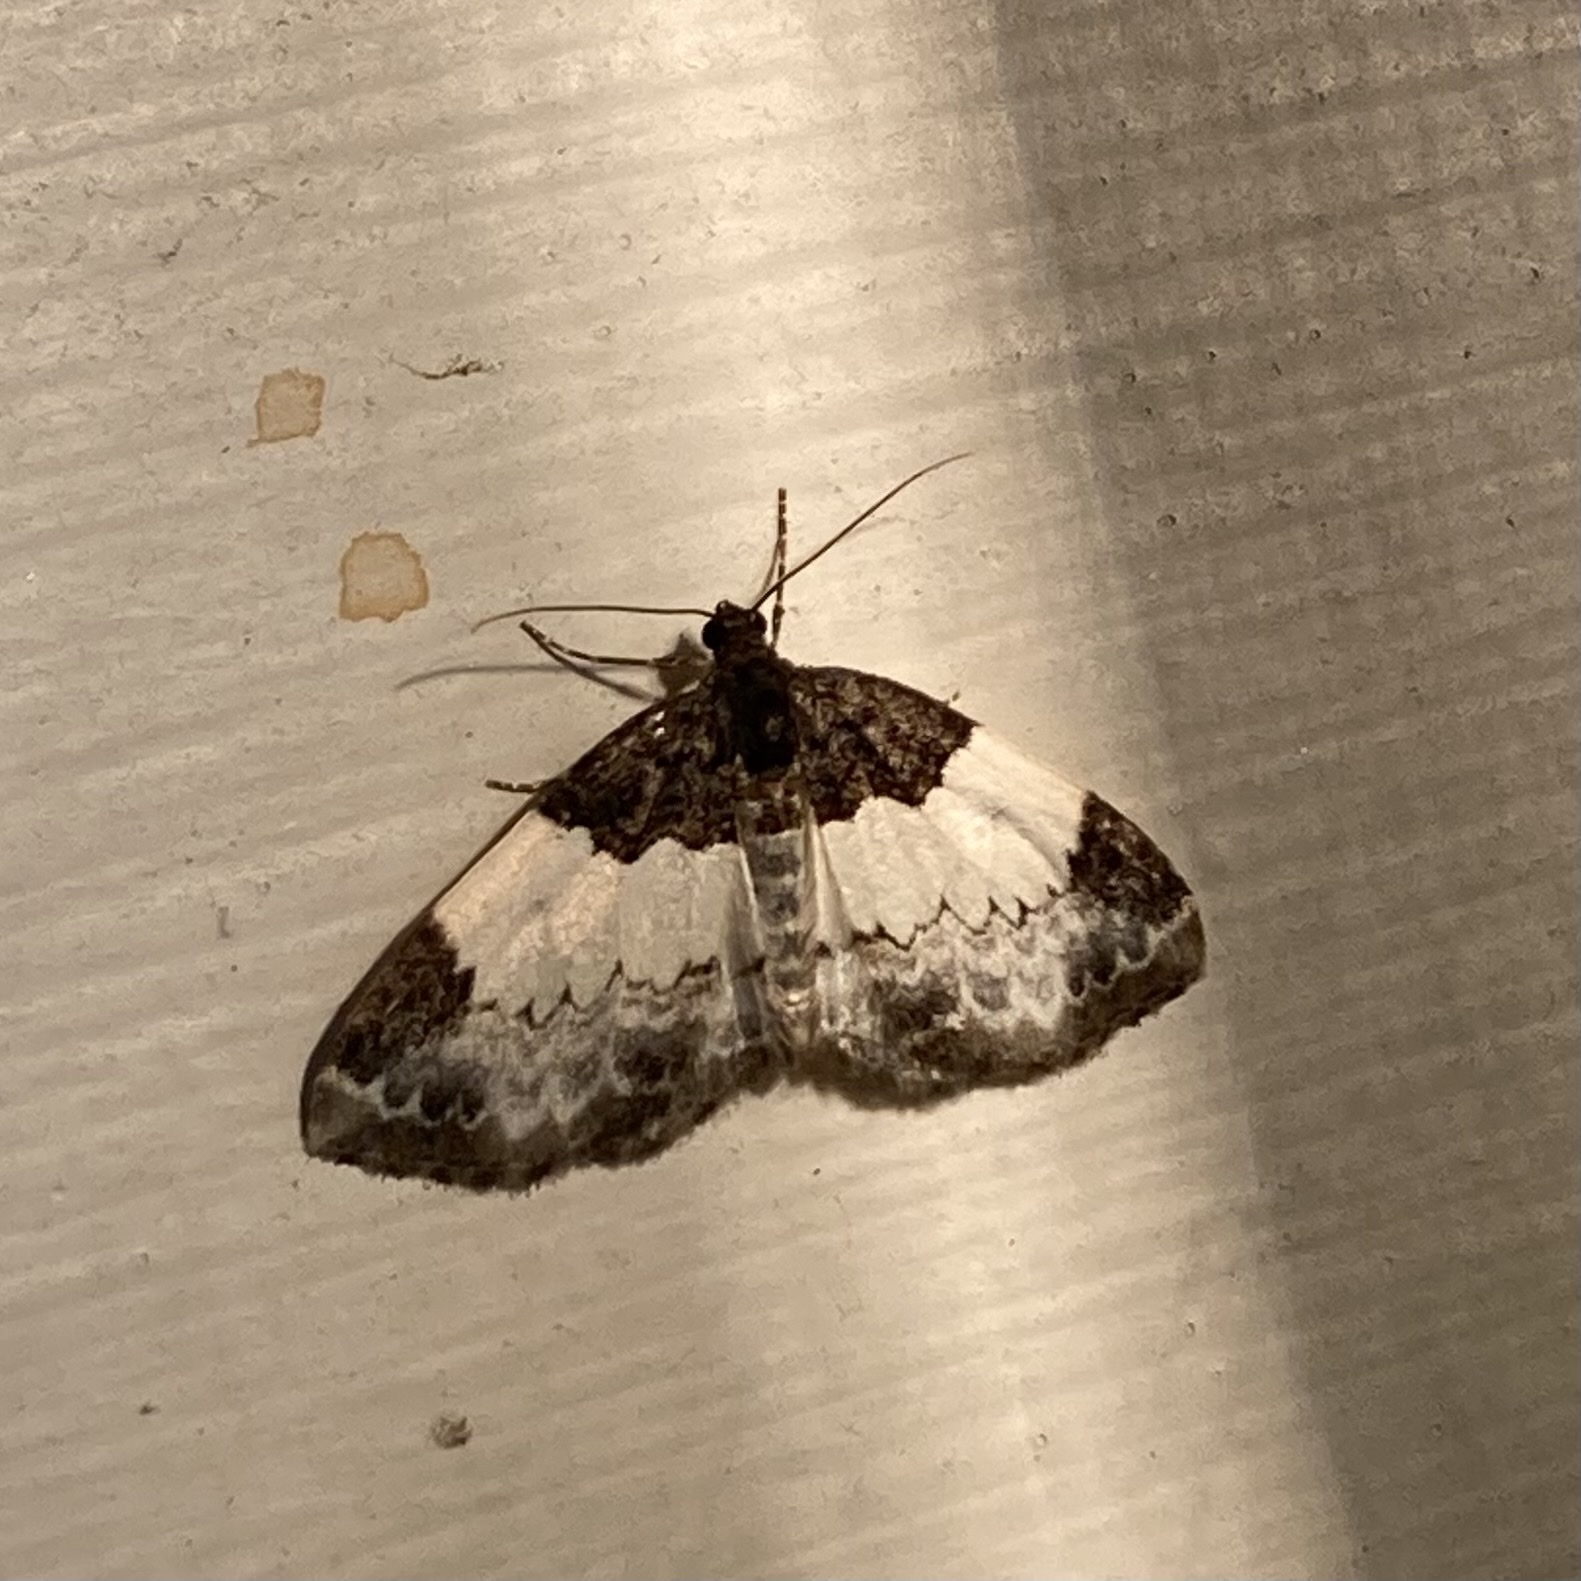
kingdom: Animalia
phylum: Arthropoda
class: Insecta
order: Lepidoptera
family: Geometridae
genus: Mesoleuca
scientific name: Mesoleuca ruficillata
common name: White-ribboned carpet moth
